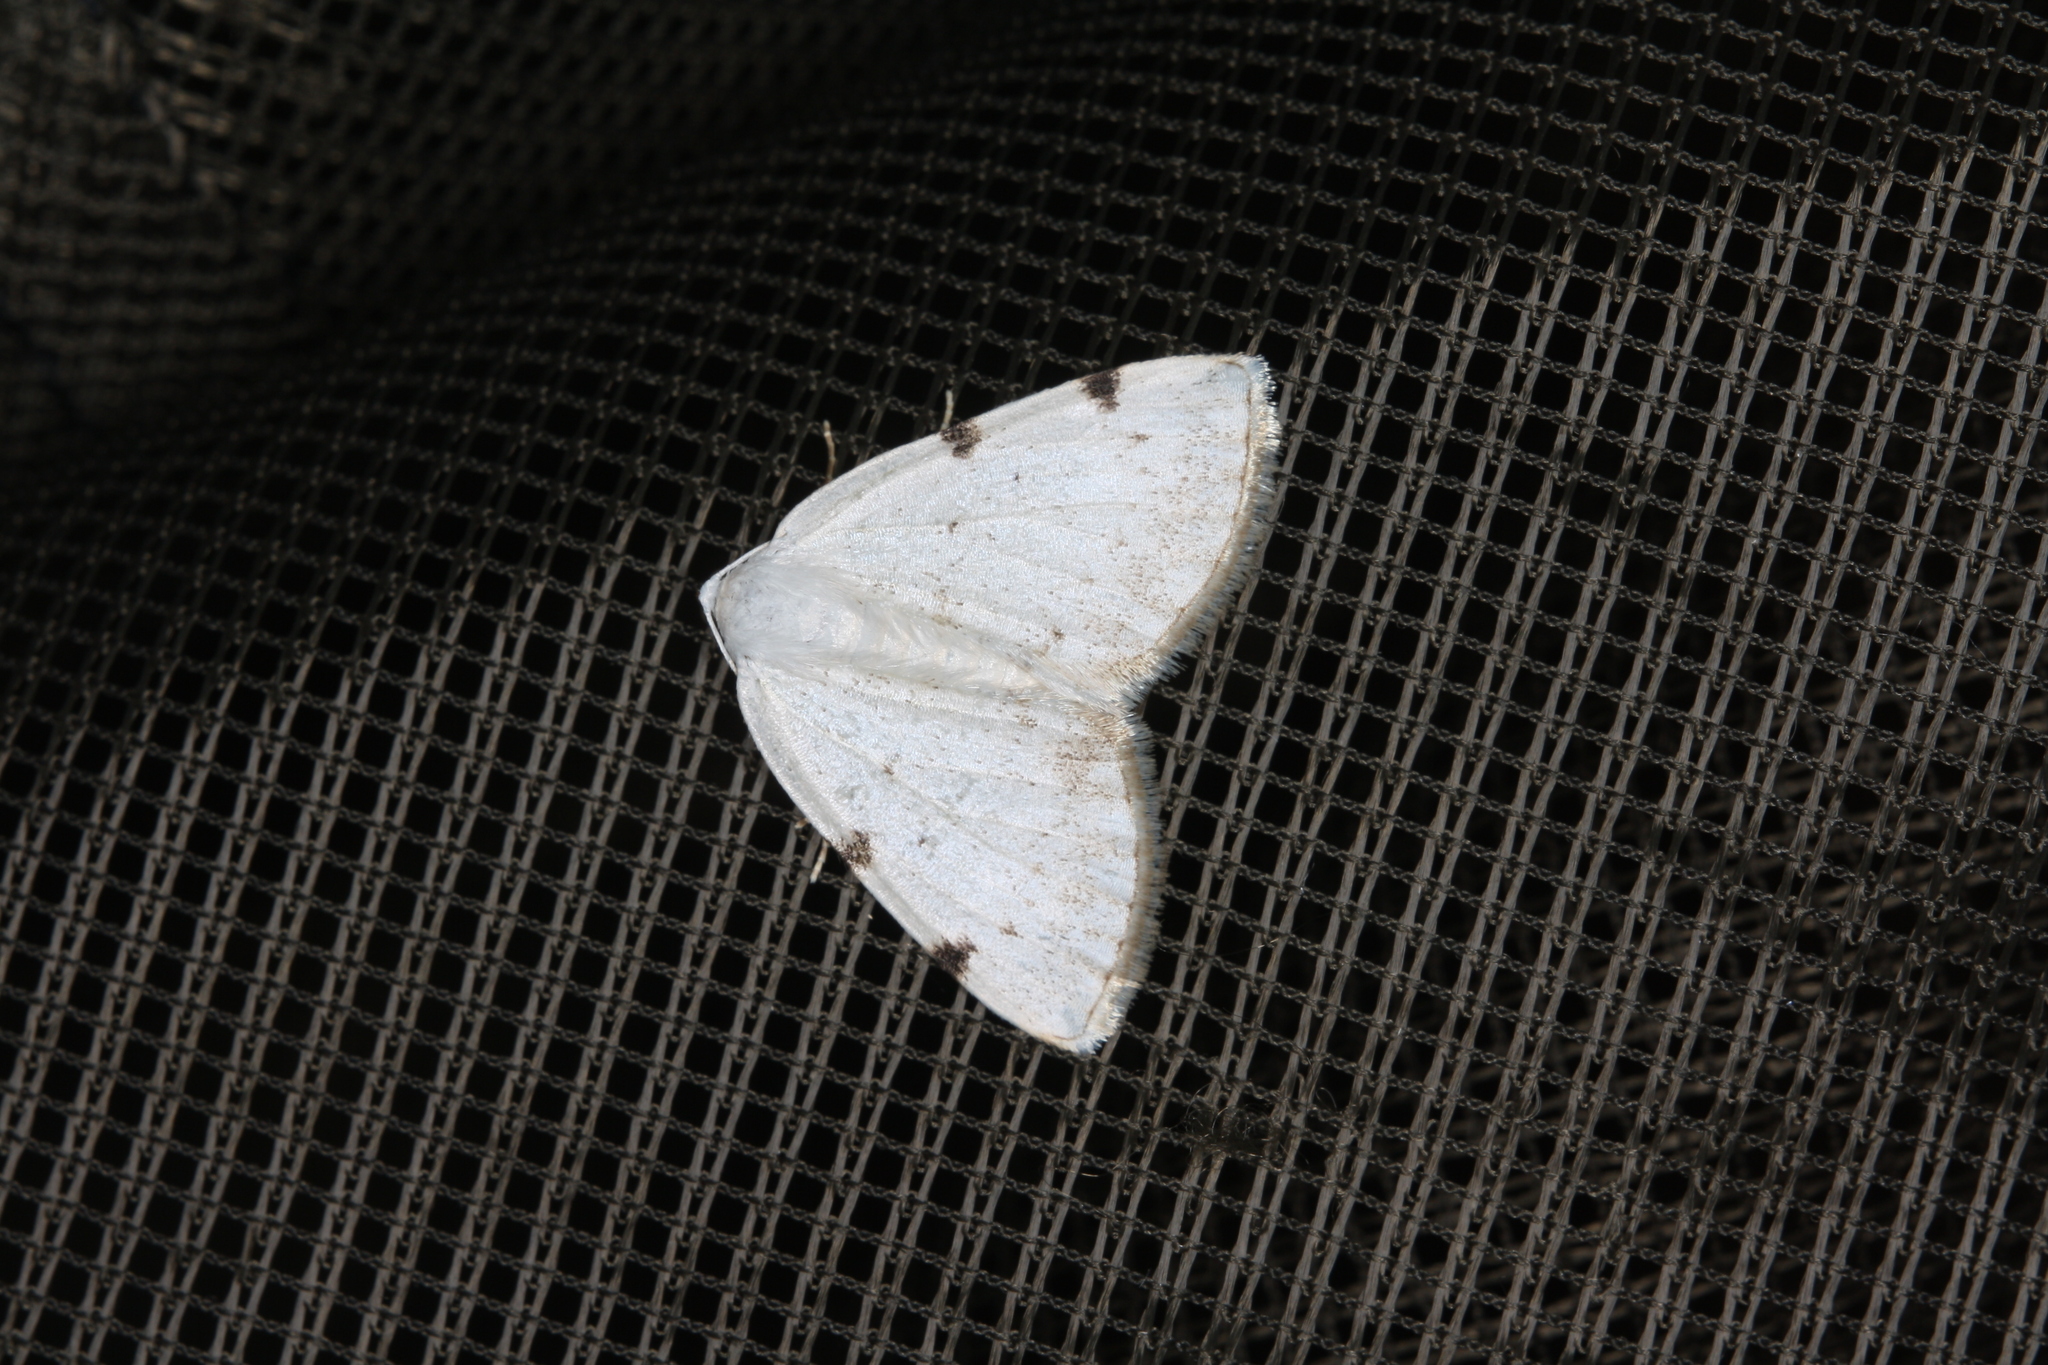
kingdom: Animalia
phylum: Arthropoda
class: Insecta
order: Lepidoptera
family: Geometridae
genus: Lomographa
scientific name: Lomographa bimaculata
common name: White-pinion spotted
